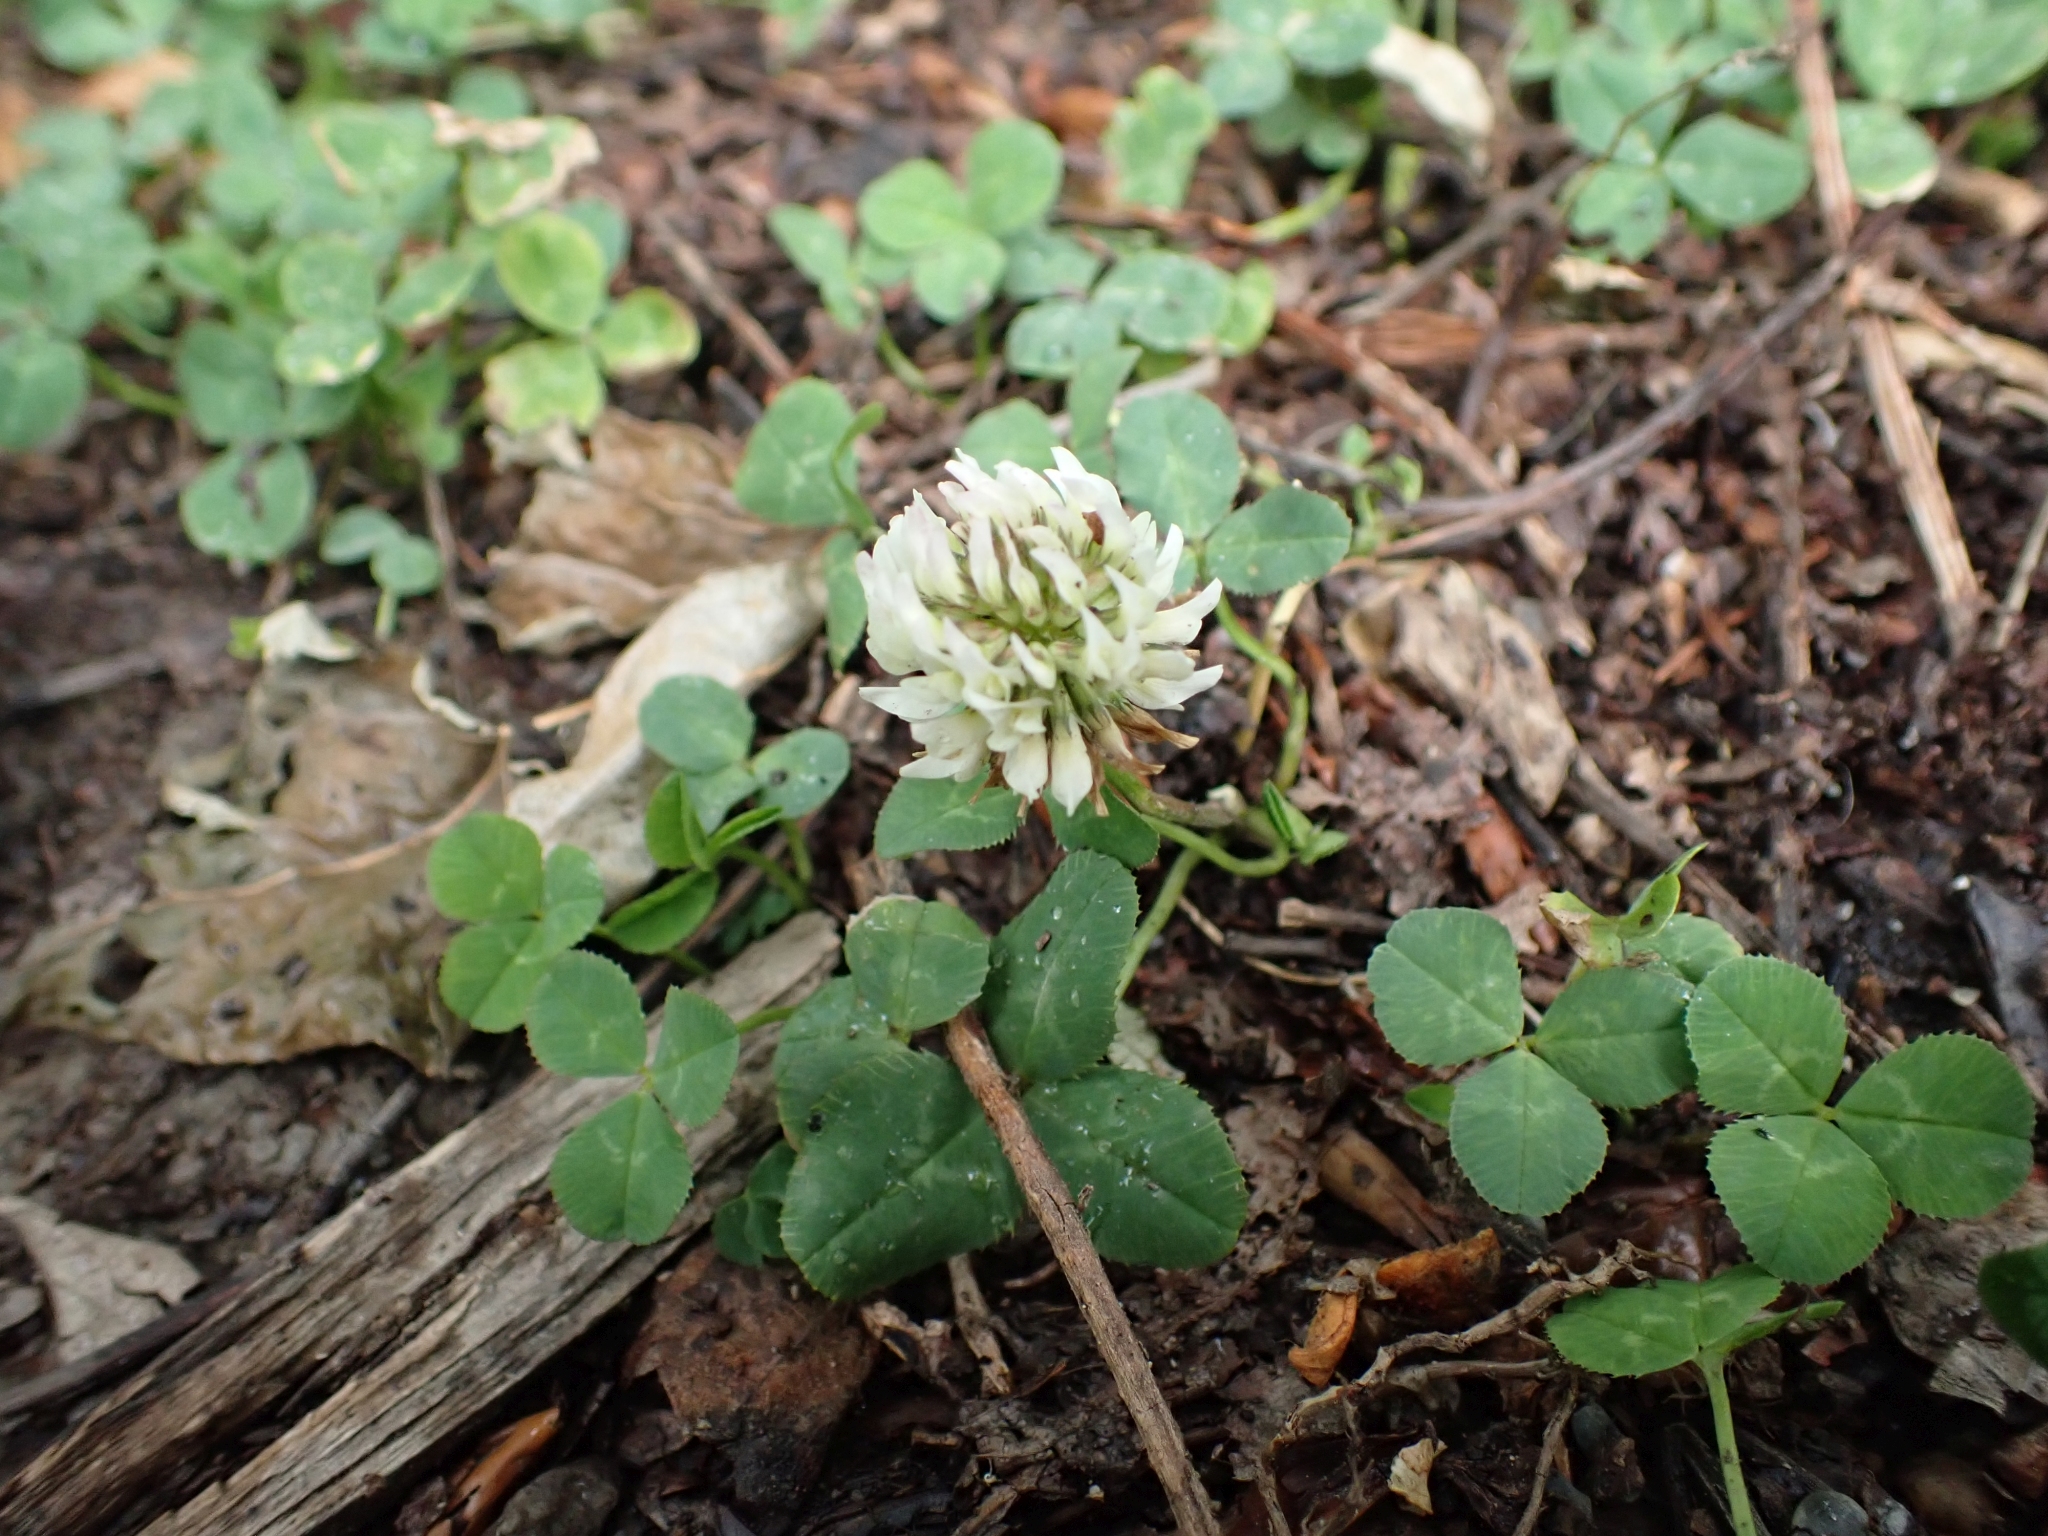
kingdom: Plantae
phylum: Tracheophyta
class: Magnoliopsida
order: Fabales
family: Fabaceae
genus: Trifolium
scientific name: Trifolium repens
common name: White clover
